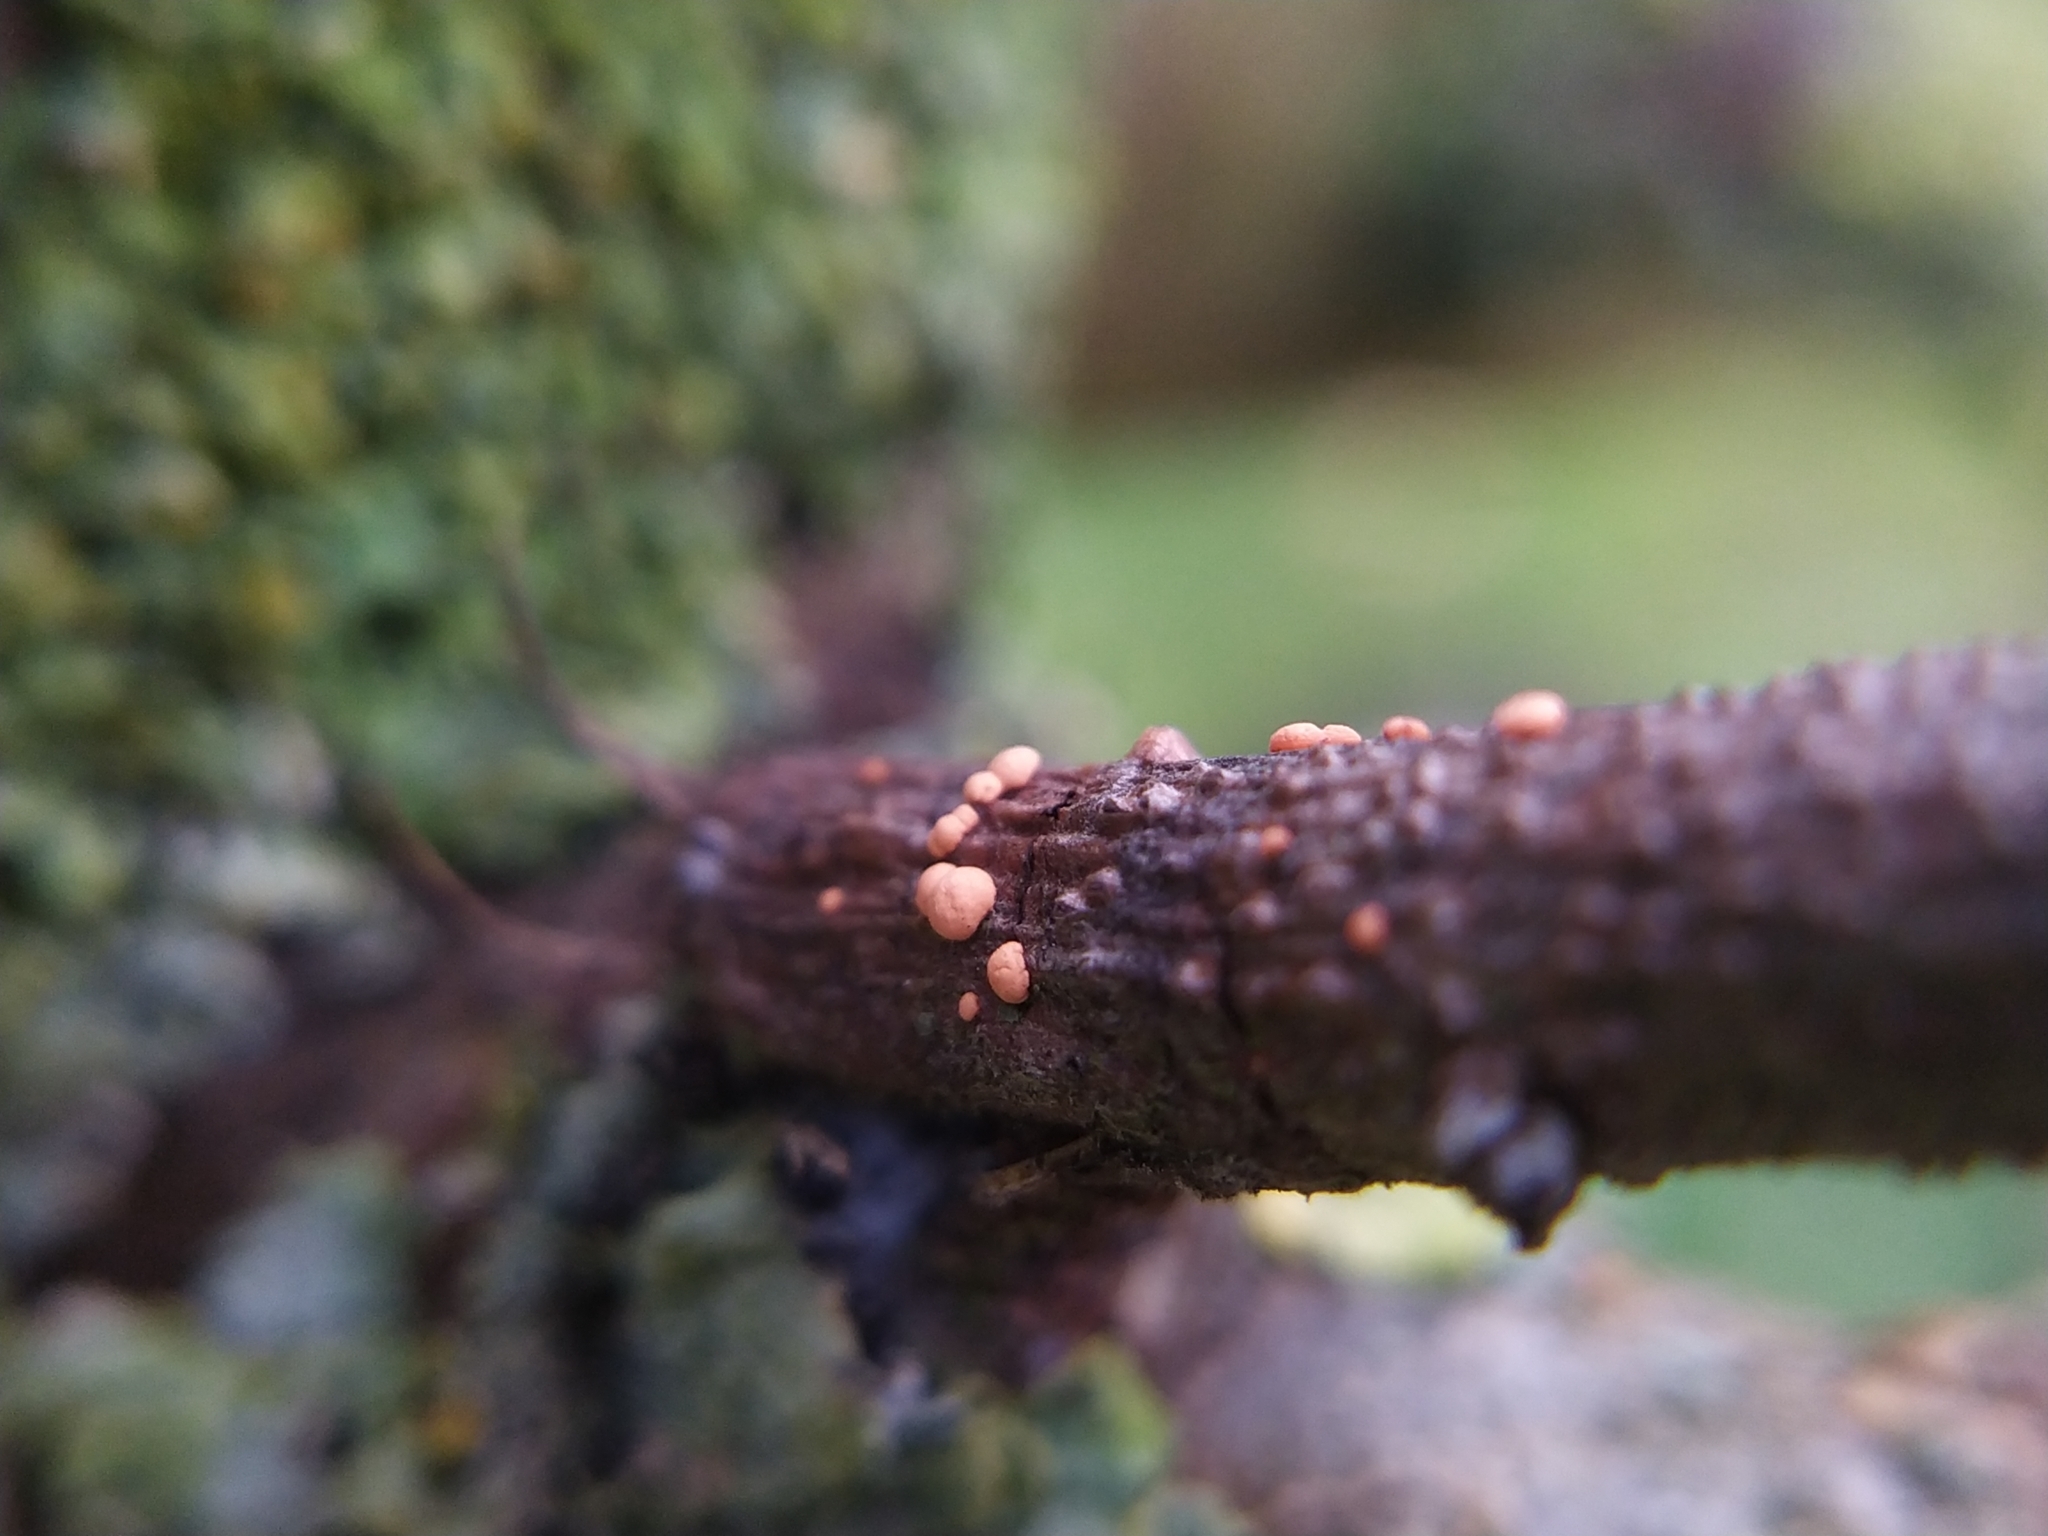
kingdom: Fungi
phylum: Ascomycota
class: Sordariomycetes
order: Hypocreales
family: Nectriaceae
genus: Nectria
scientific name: Nectria cinnabarina
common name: Coral spot
